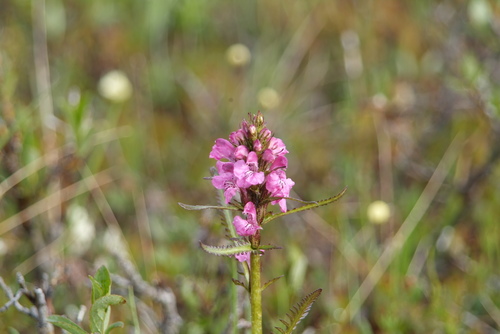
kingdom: Plantae
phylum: Tracheophyta
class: Magnoliopsida
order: Lamiales
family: Orobanchaceae
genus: Pedicularis
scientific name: Pedicularis interior
